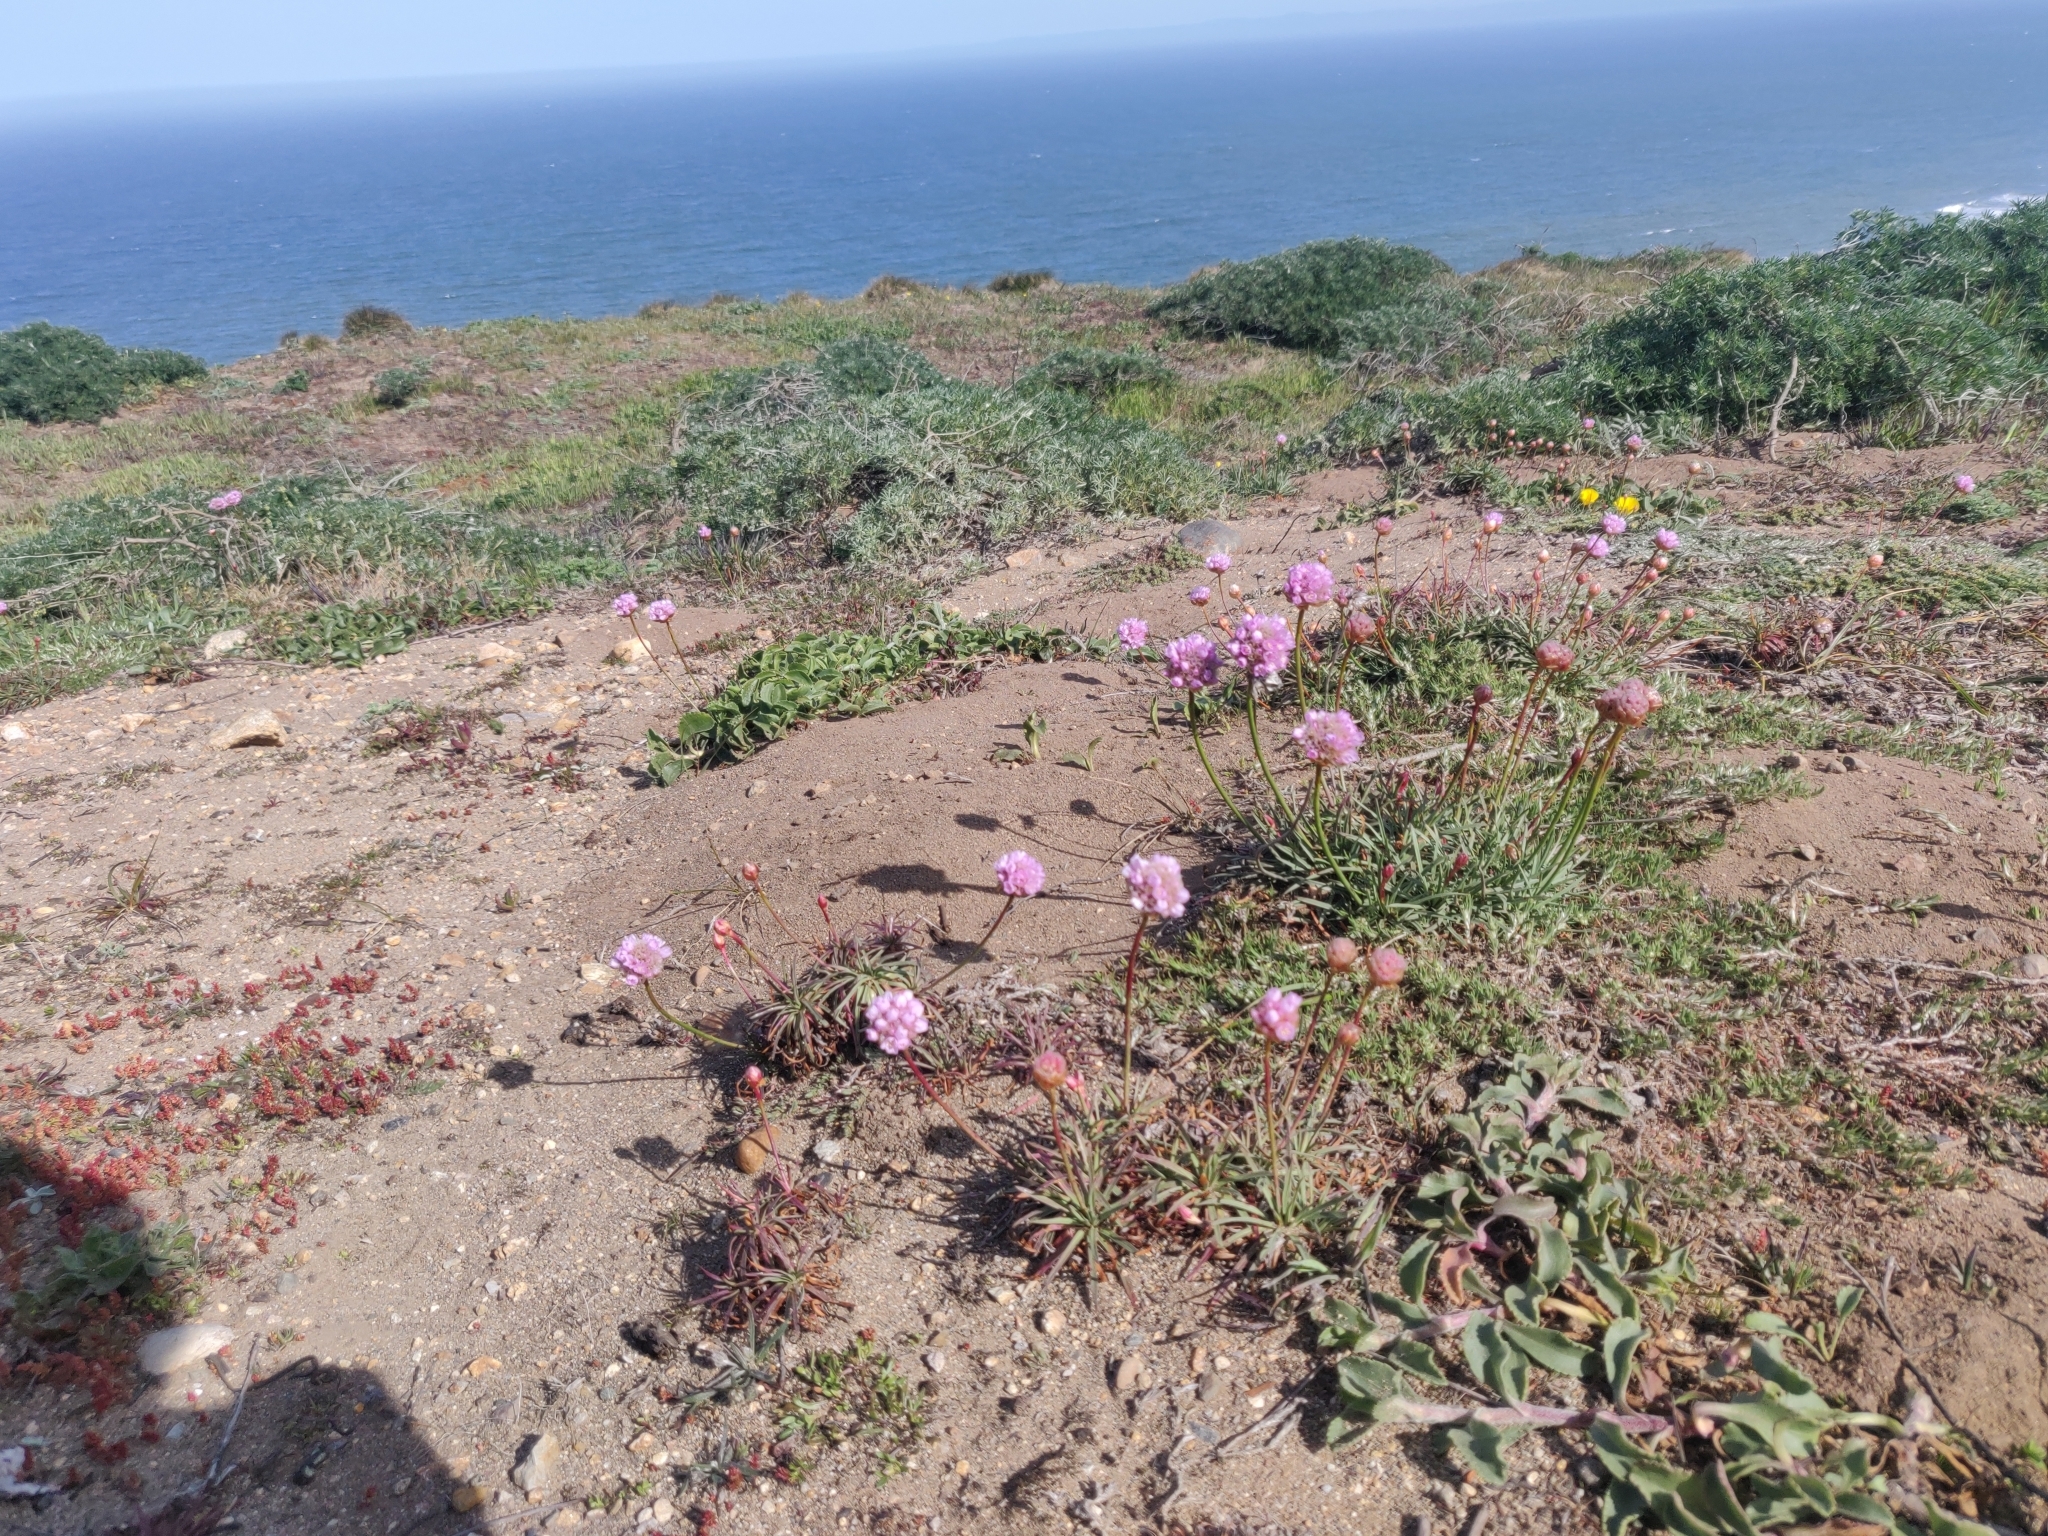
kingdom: Plantae
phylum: Tracheophyta
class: Magnoliopsida
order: Caryophyllales
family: Plumbaginaceae
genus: Armeria
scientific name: Armeria maritima
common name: Thrift
